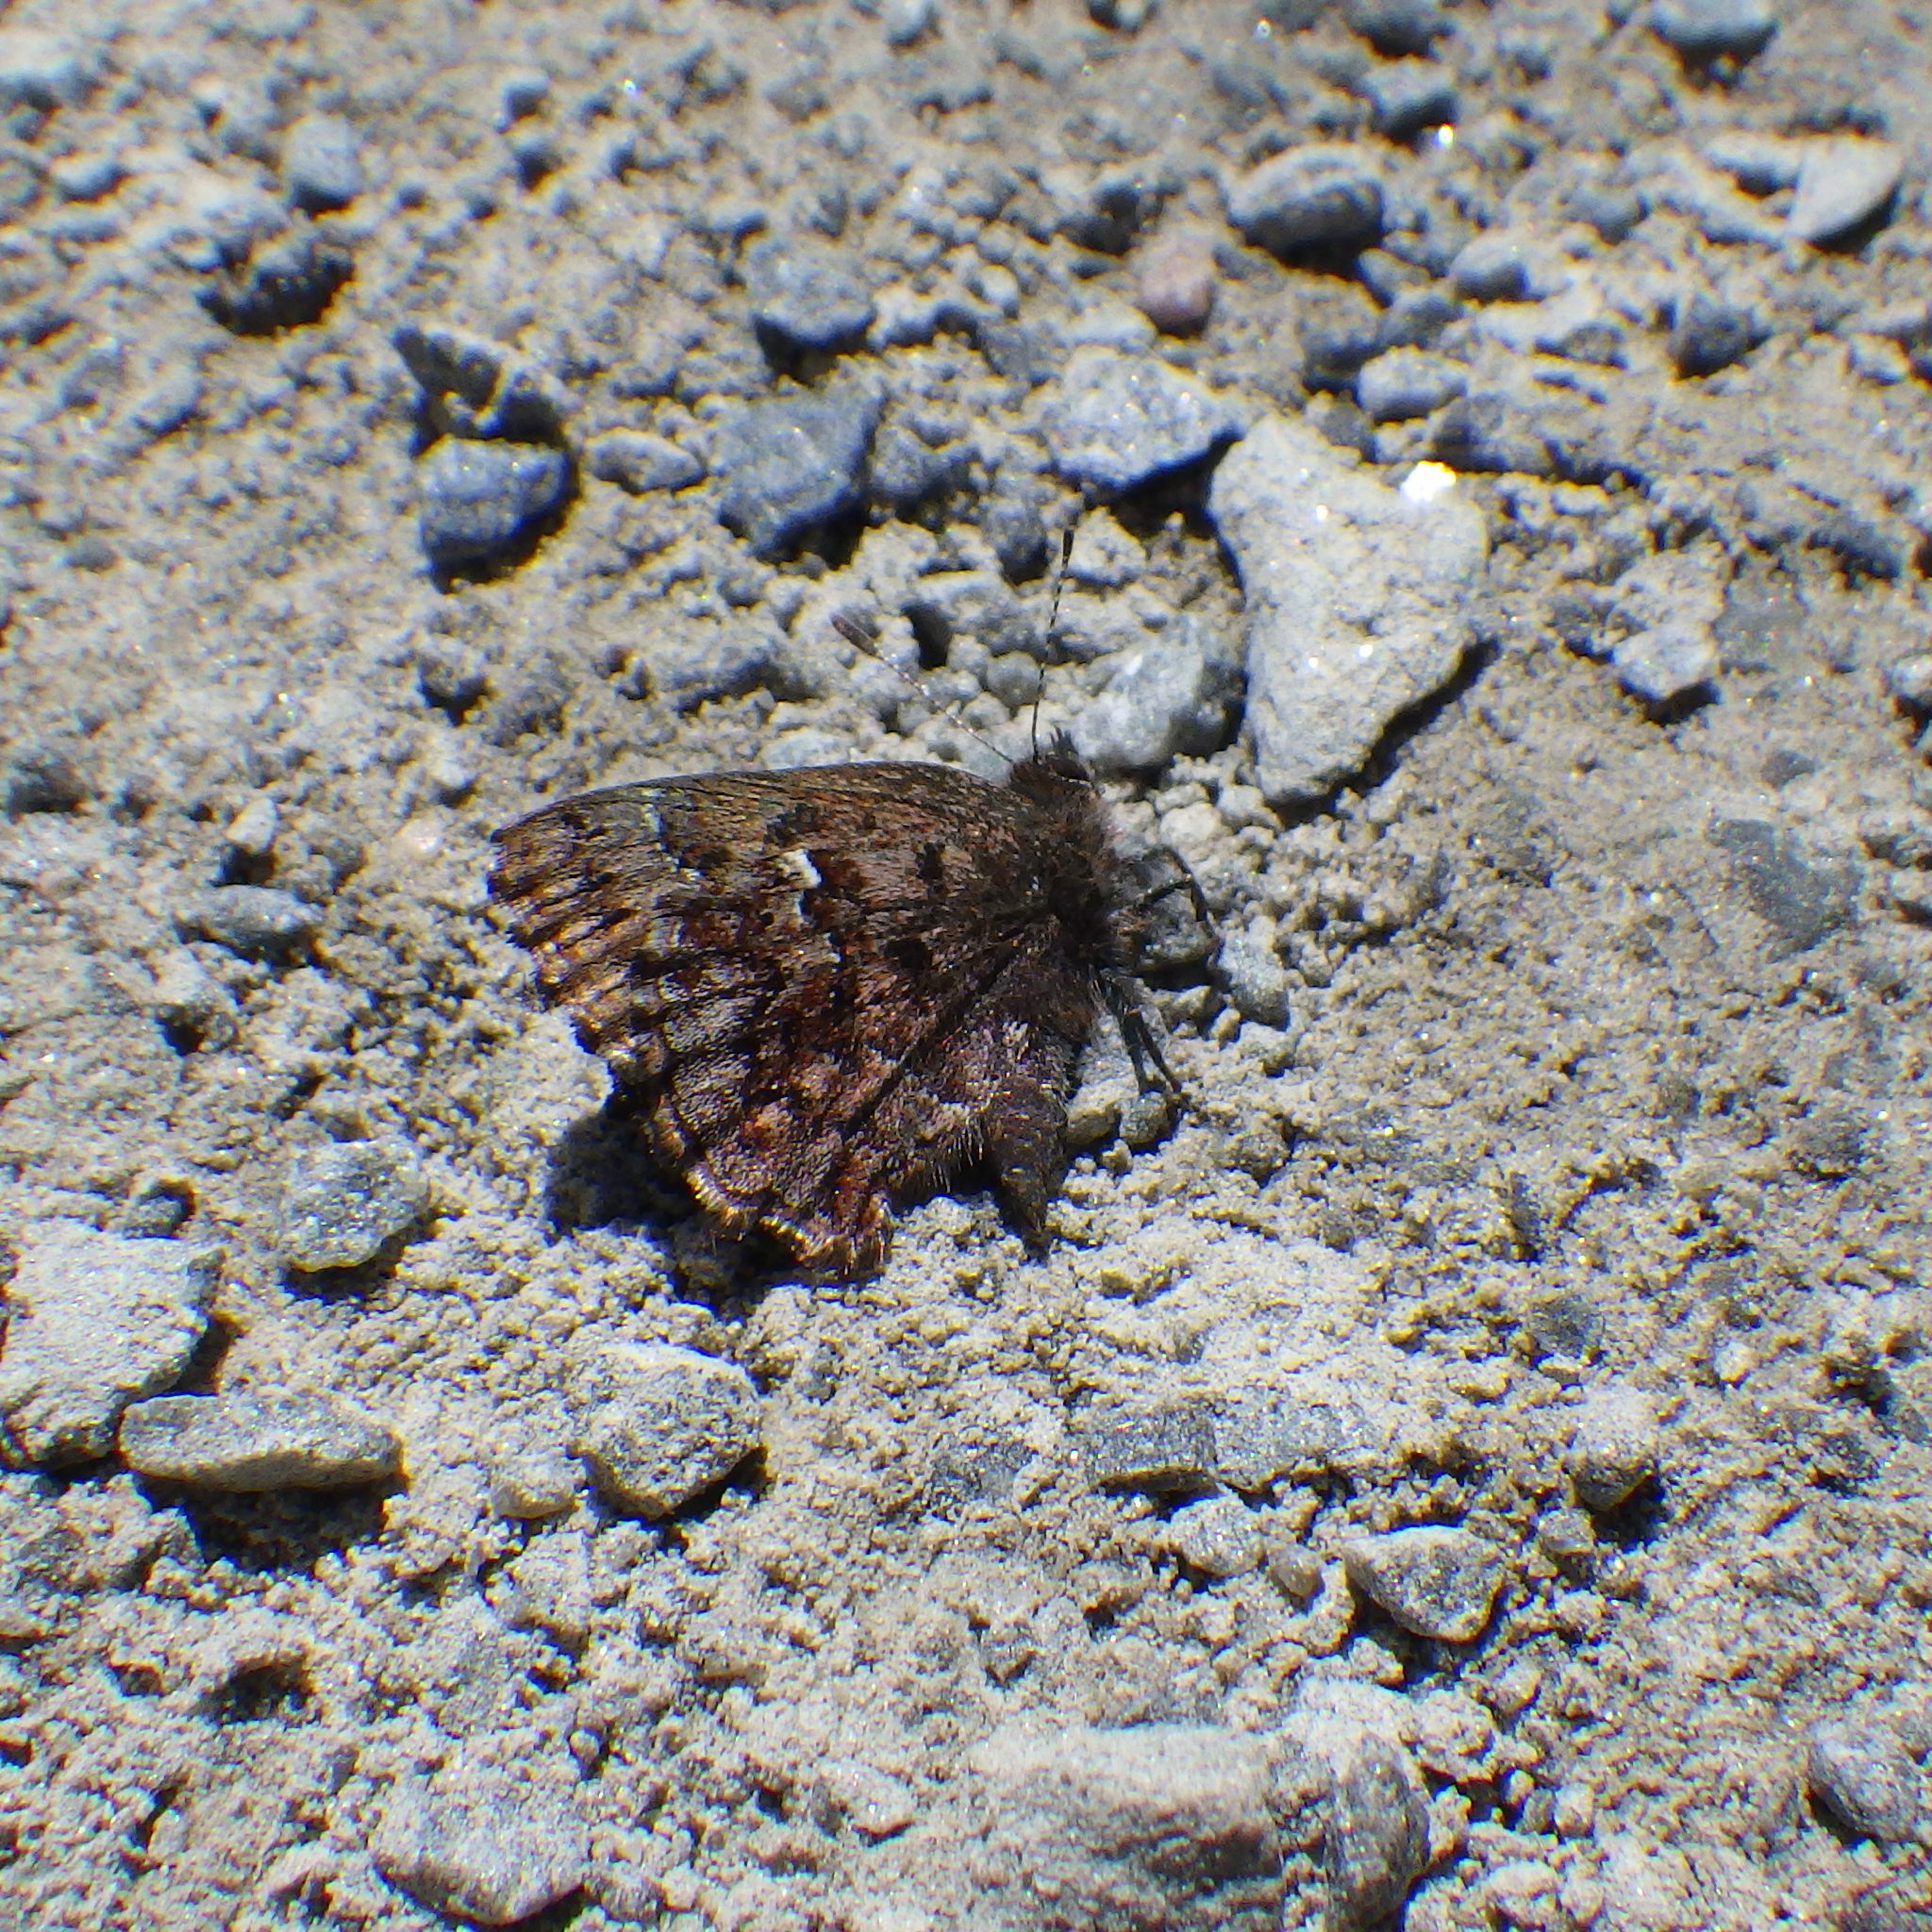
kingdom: Animalia
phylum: Arthropoda
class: Insecta
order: Lepidoptera
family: Lycaenidae
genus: Incisalia
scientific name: Incisalia lanoraieensis
